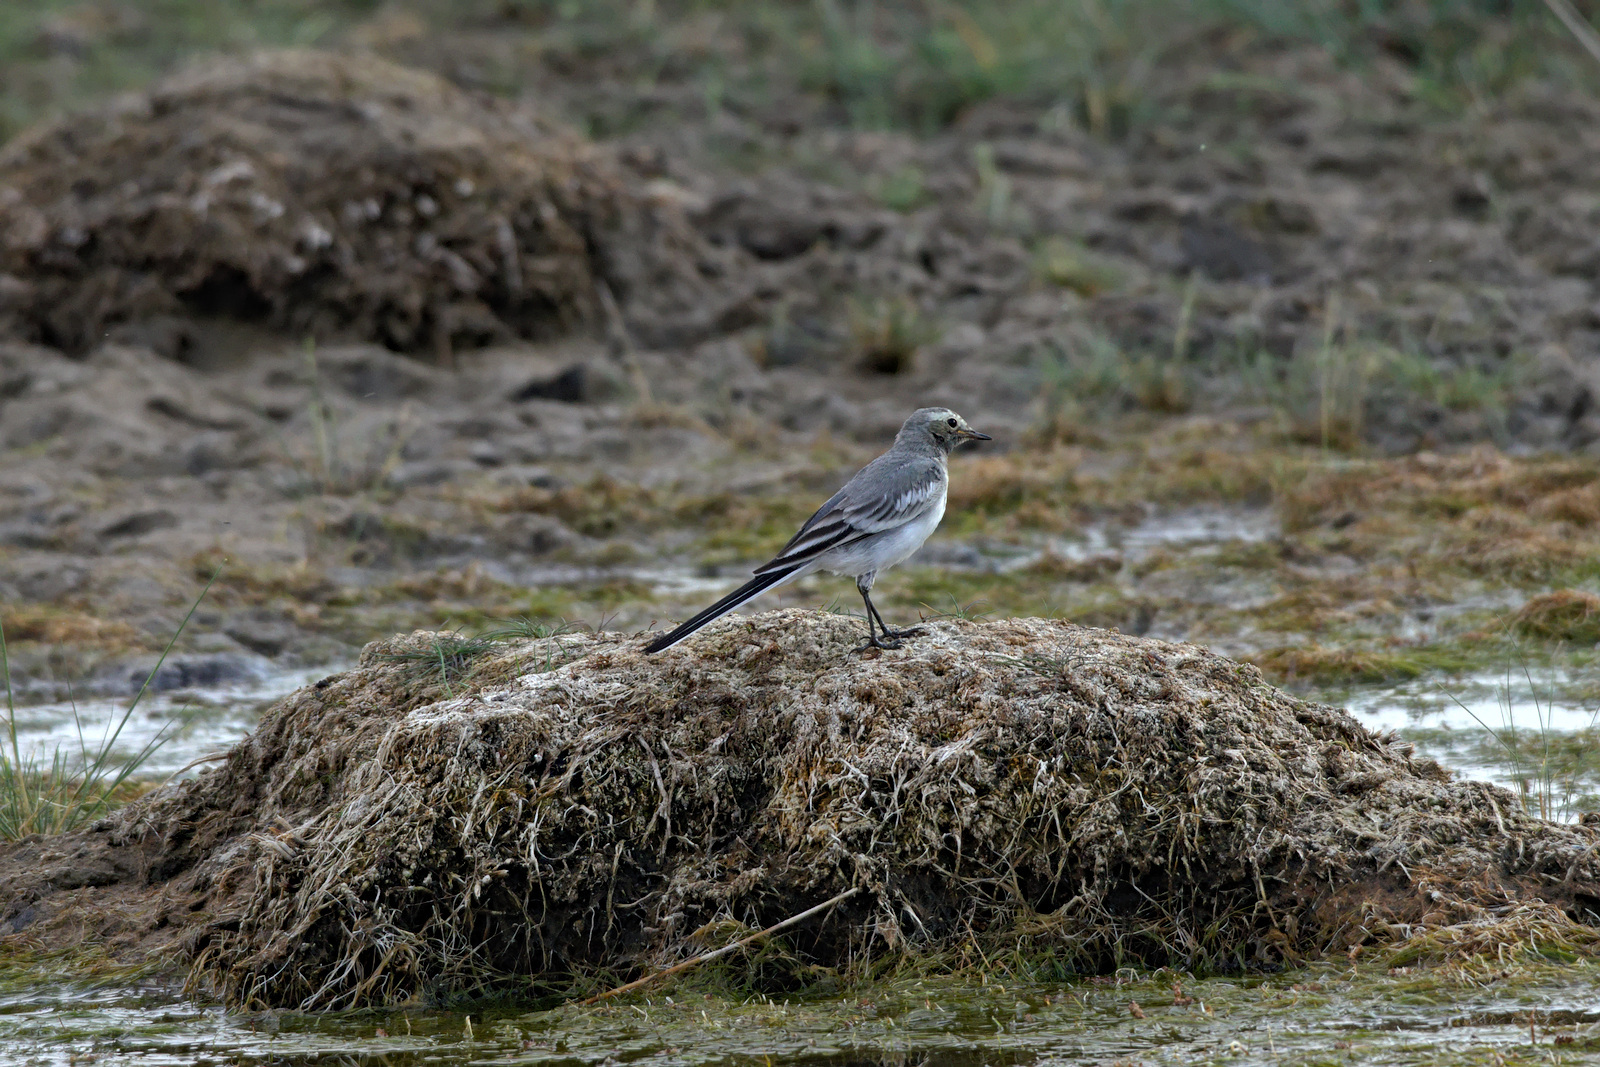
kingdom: Animalia
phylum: Chordata
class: Aves
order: Passeriformes
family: Motacillidae
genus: Motacilla
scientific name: Motacilla alba
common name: White wagtail
